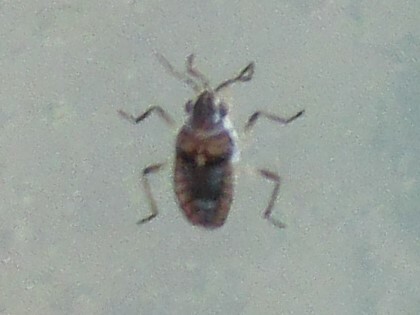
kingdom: Animalia
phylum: Arthropoda
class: Insecta
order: Hemiptera
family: Veliidae
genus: Microvelia
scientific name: Microvelia
